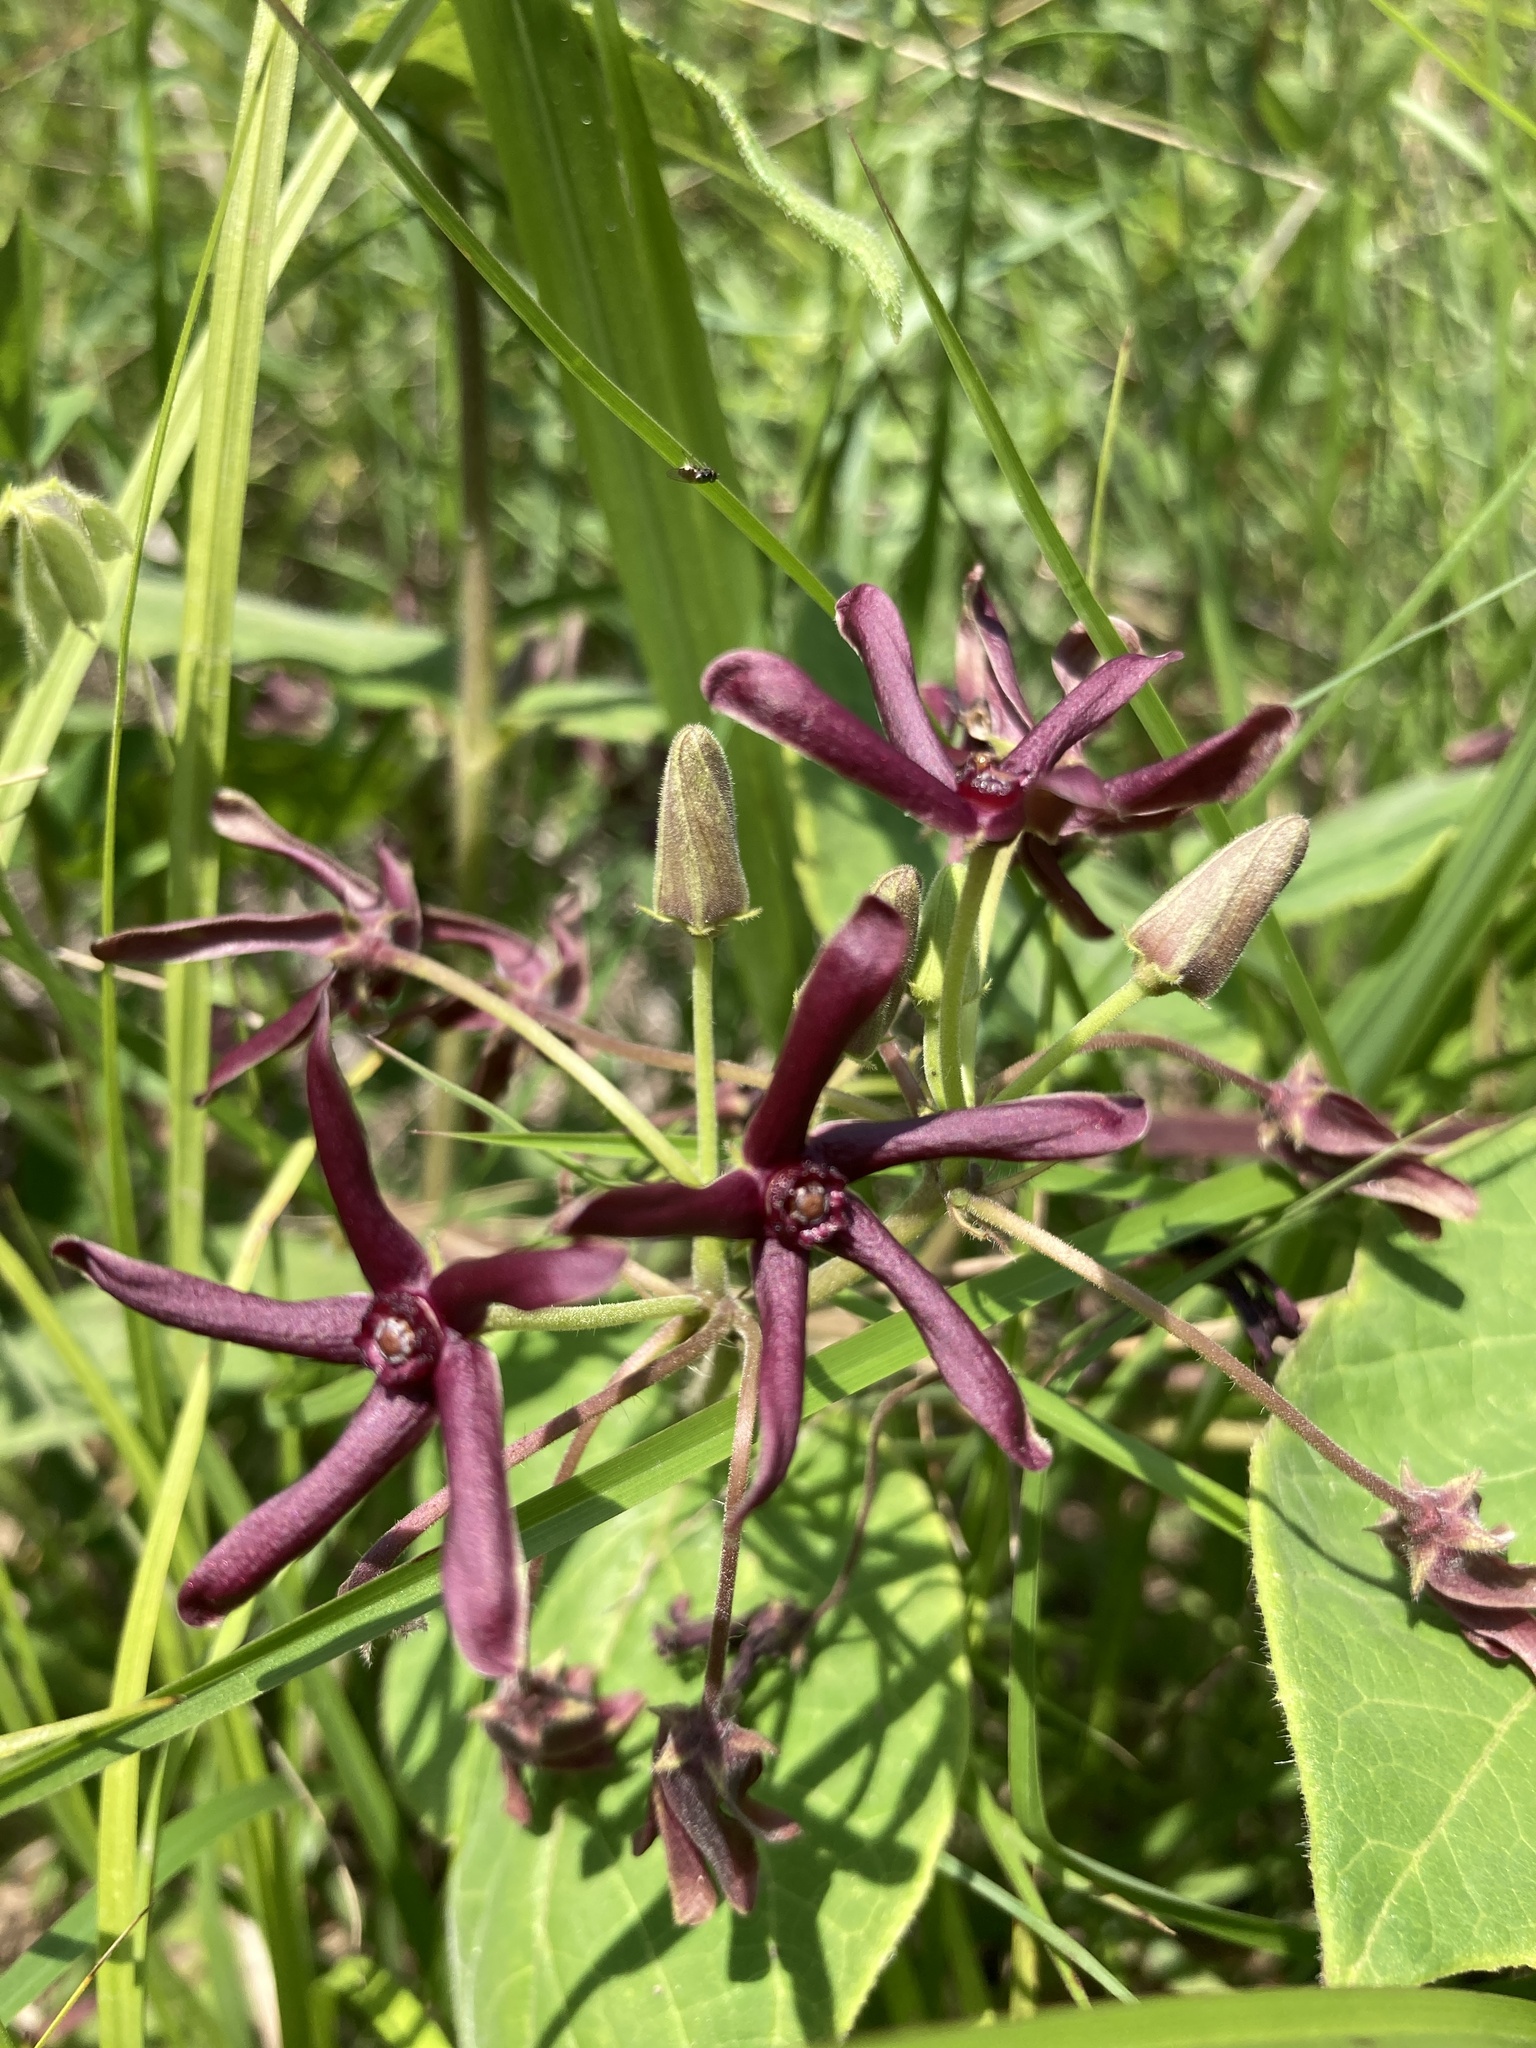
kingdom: Plantae
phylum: Tracheophyta
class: Magnoliopsida
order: Gentianales
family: Apocynaceae
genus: Matelea
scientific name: Matelea obliqua
